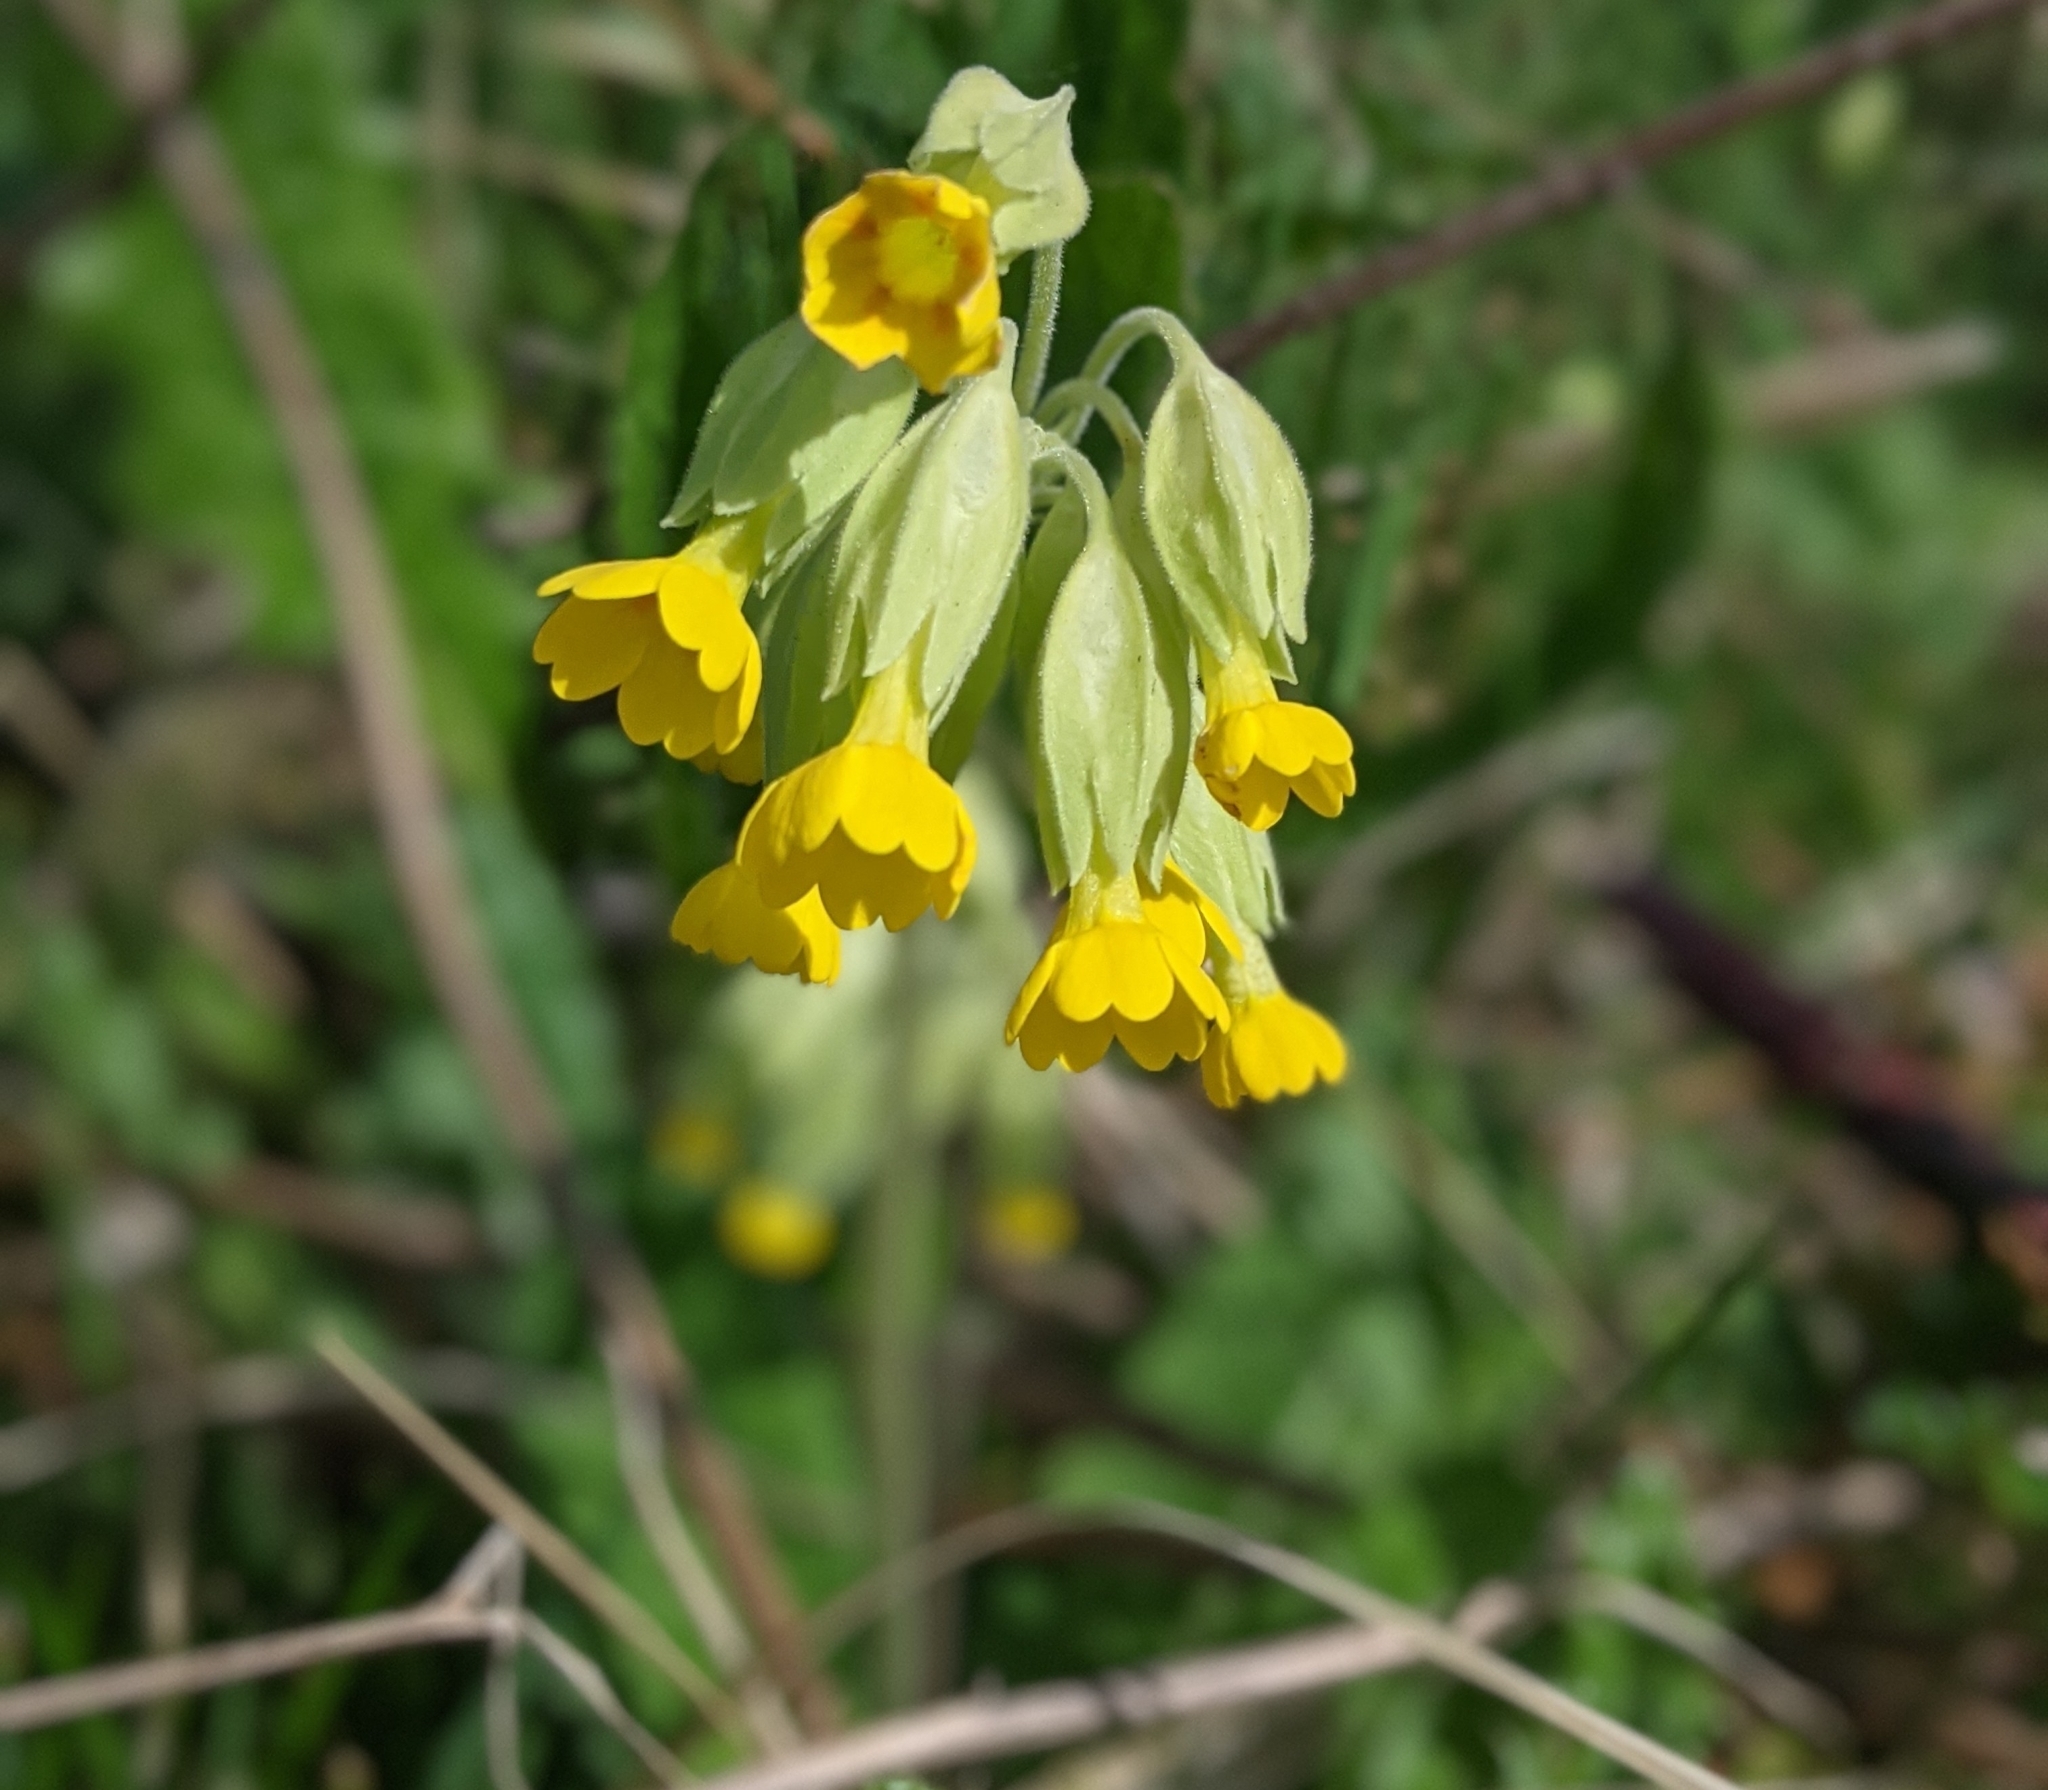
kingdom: Plantae
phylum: Tracheophyta
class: Magnoliopsida
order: Ericales
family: Primulaceae
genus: Primula
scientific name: Primula veris
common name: Cowslip
